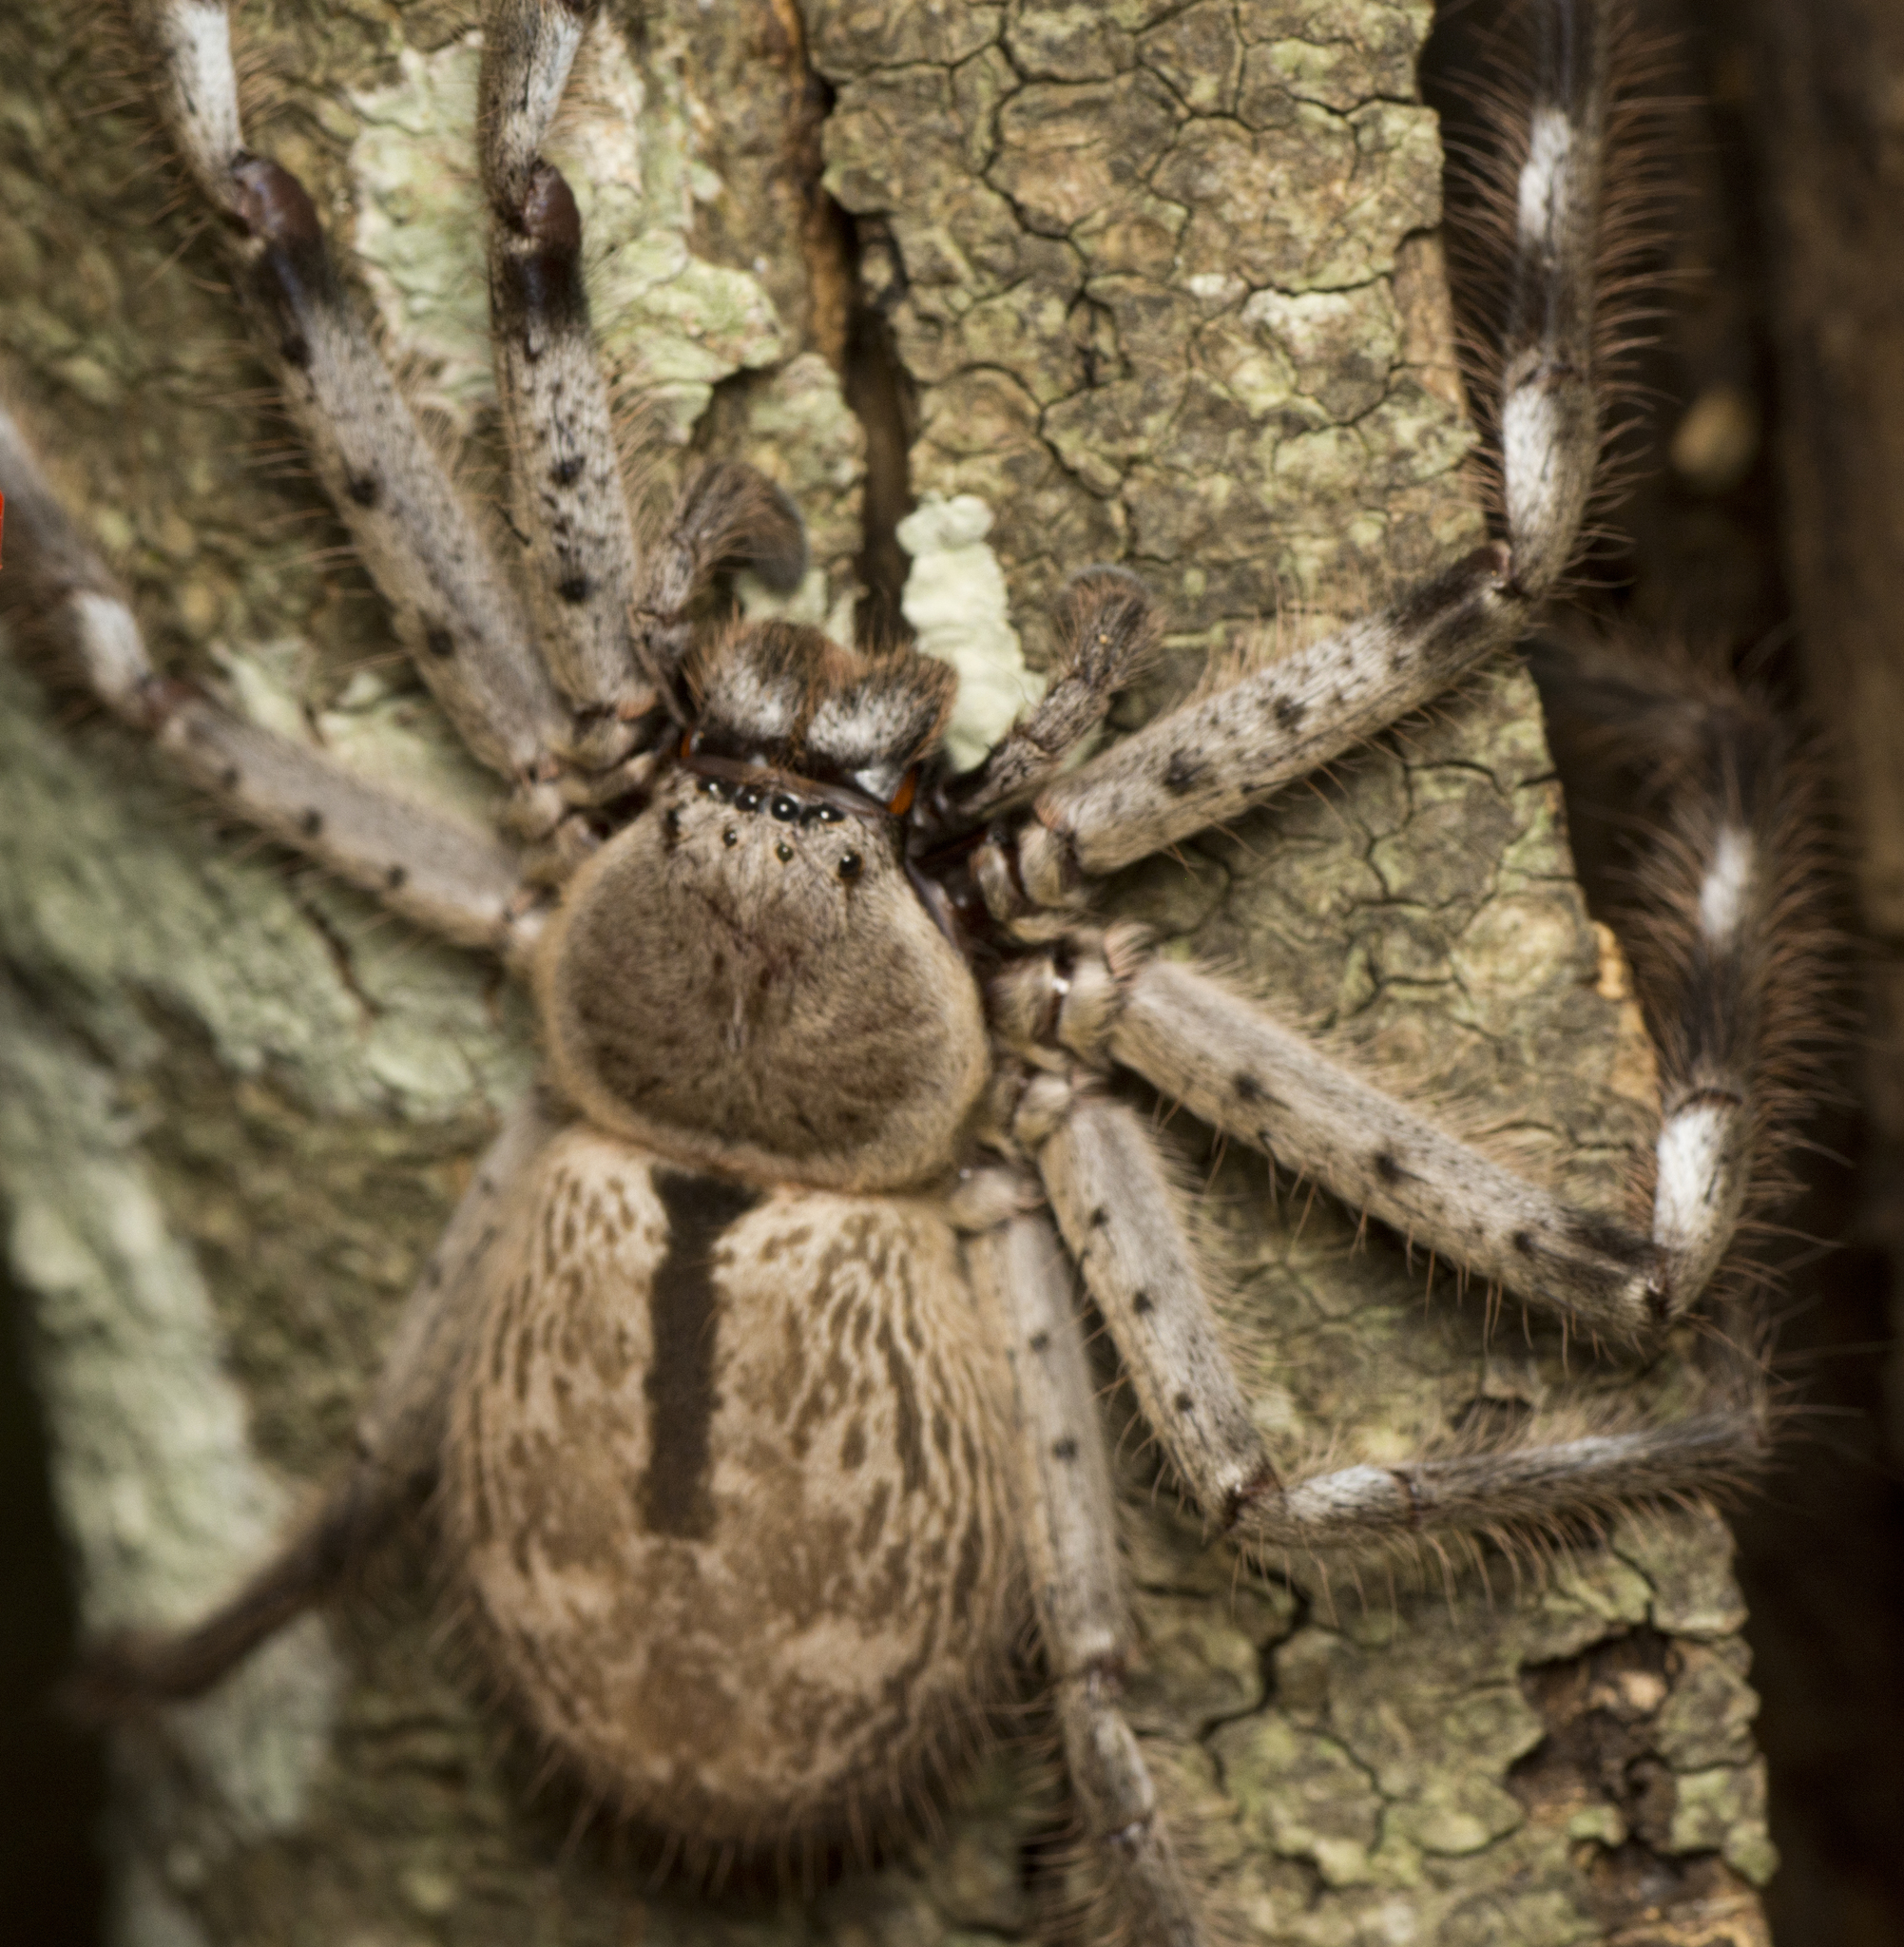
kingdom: Animalia
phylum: Arthropoda
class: Arachnida
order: Araneae
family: Sparassidae
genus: Holconia
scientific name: Holconia immanis
